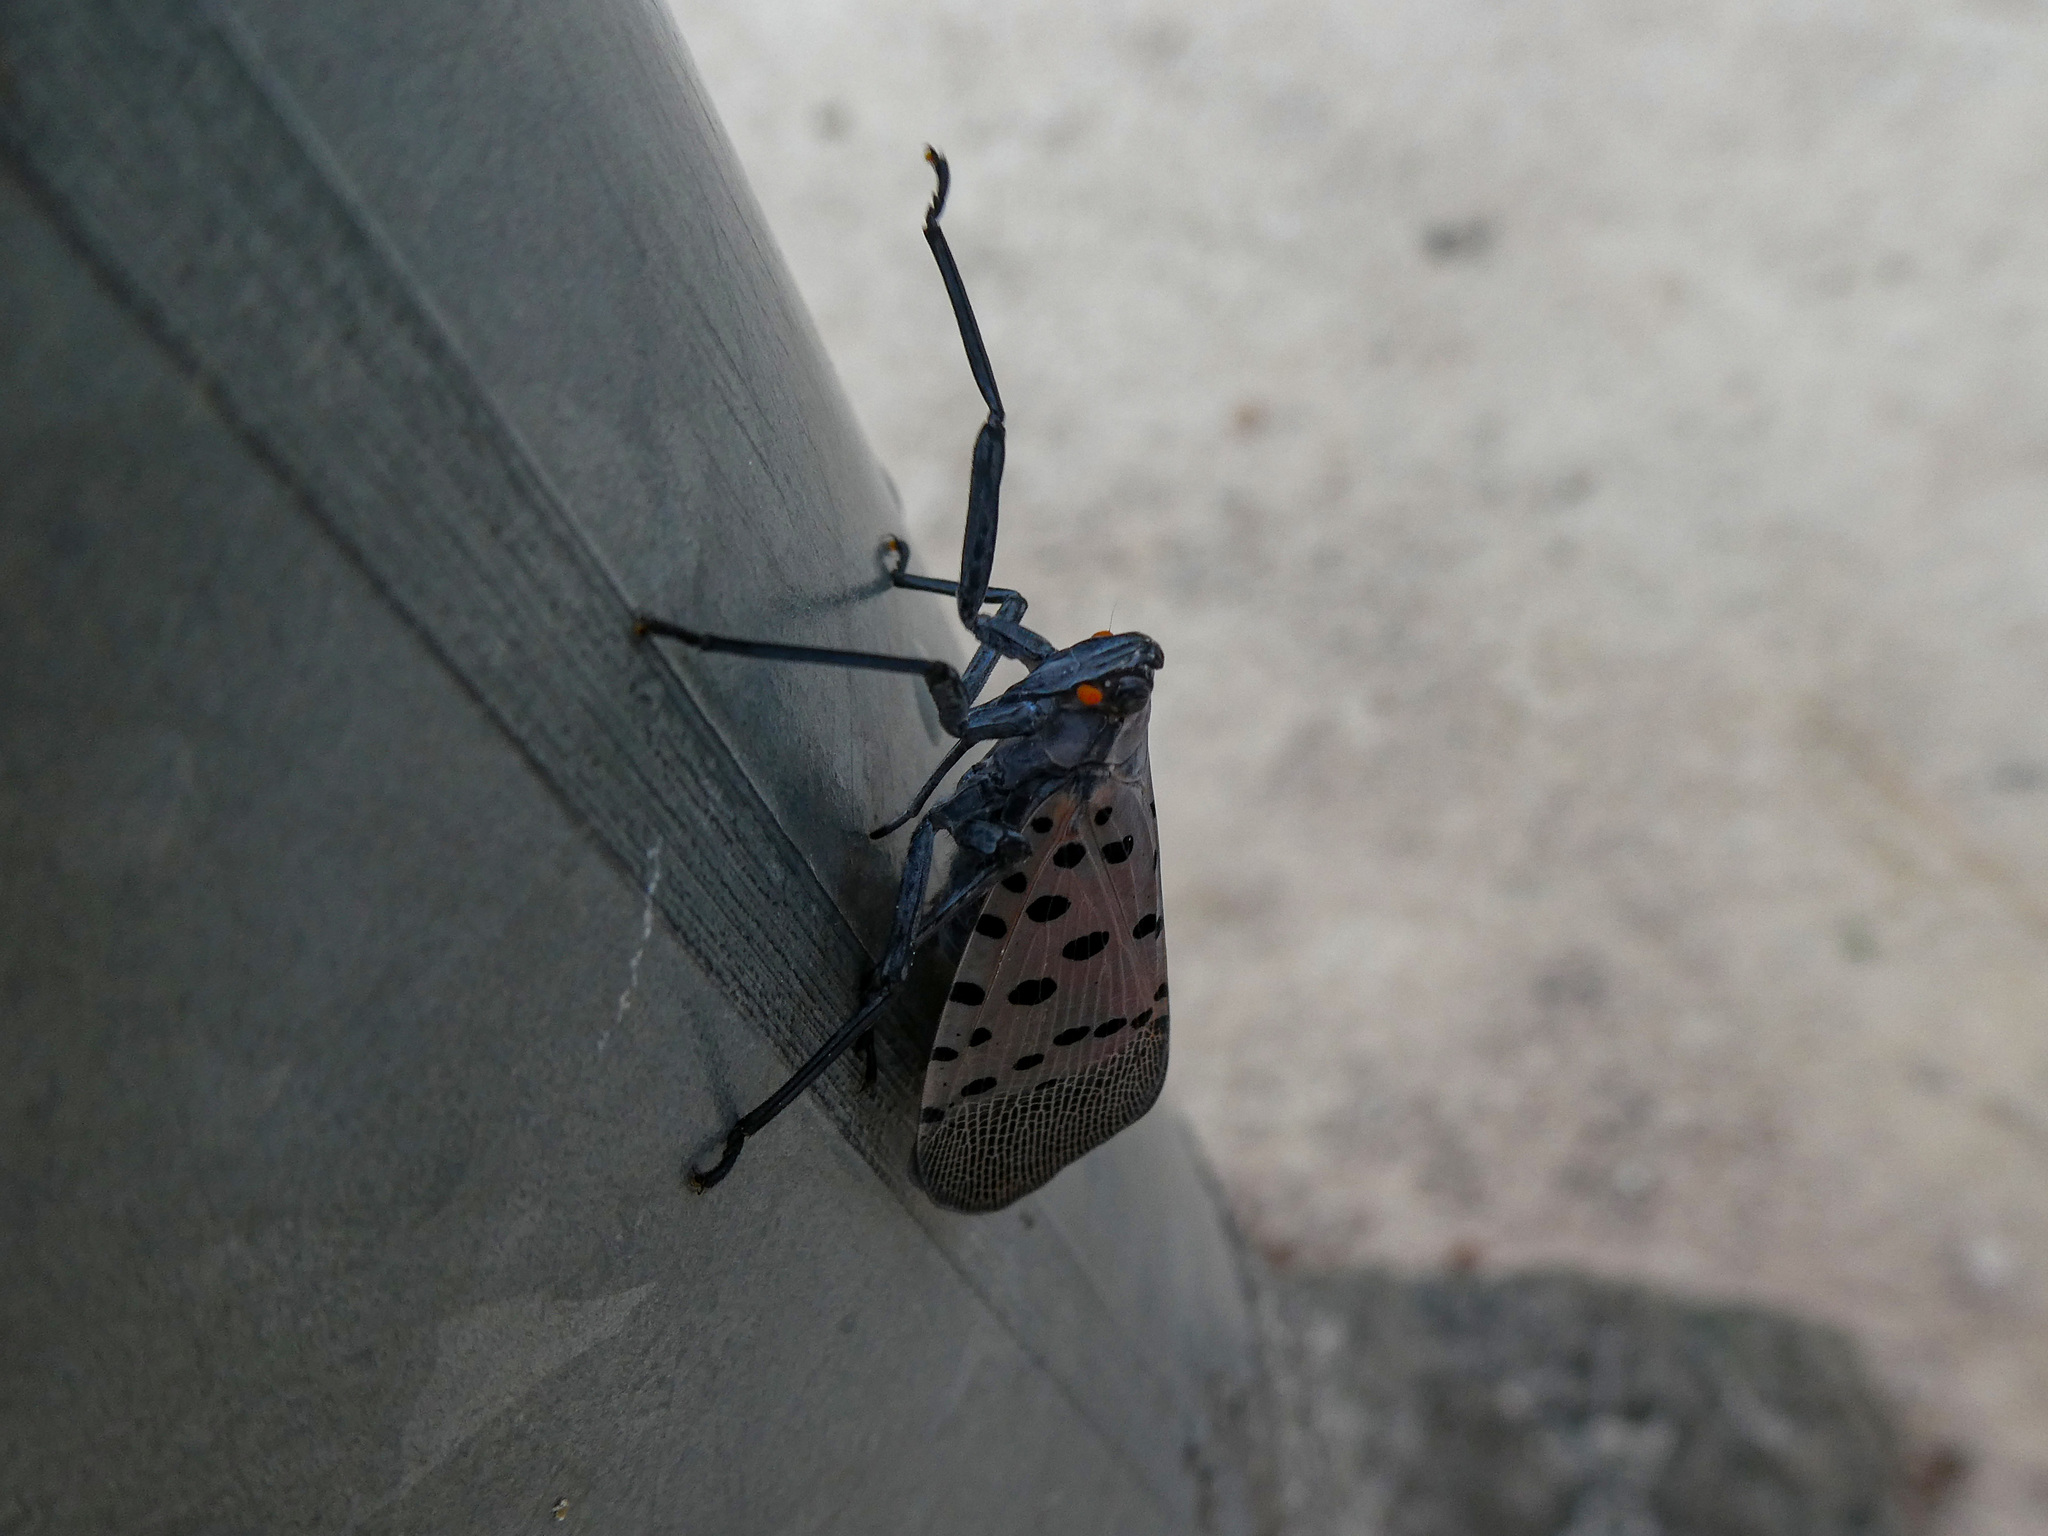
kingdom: Animalia
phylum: Arthropoda
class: Insecta
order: Hemiptera
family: Fulgoridae
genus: Lycorma
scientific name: Lycorma delicatula
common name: Spotted lanternfly
